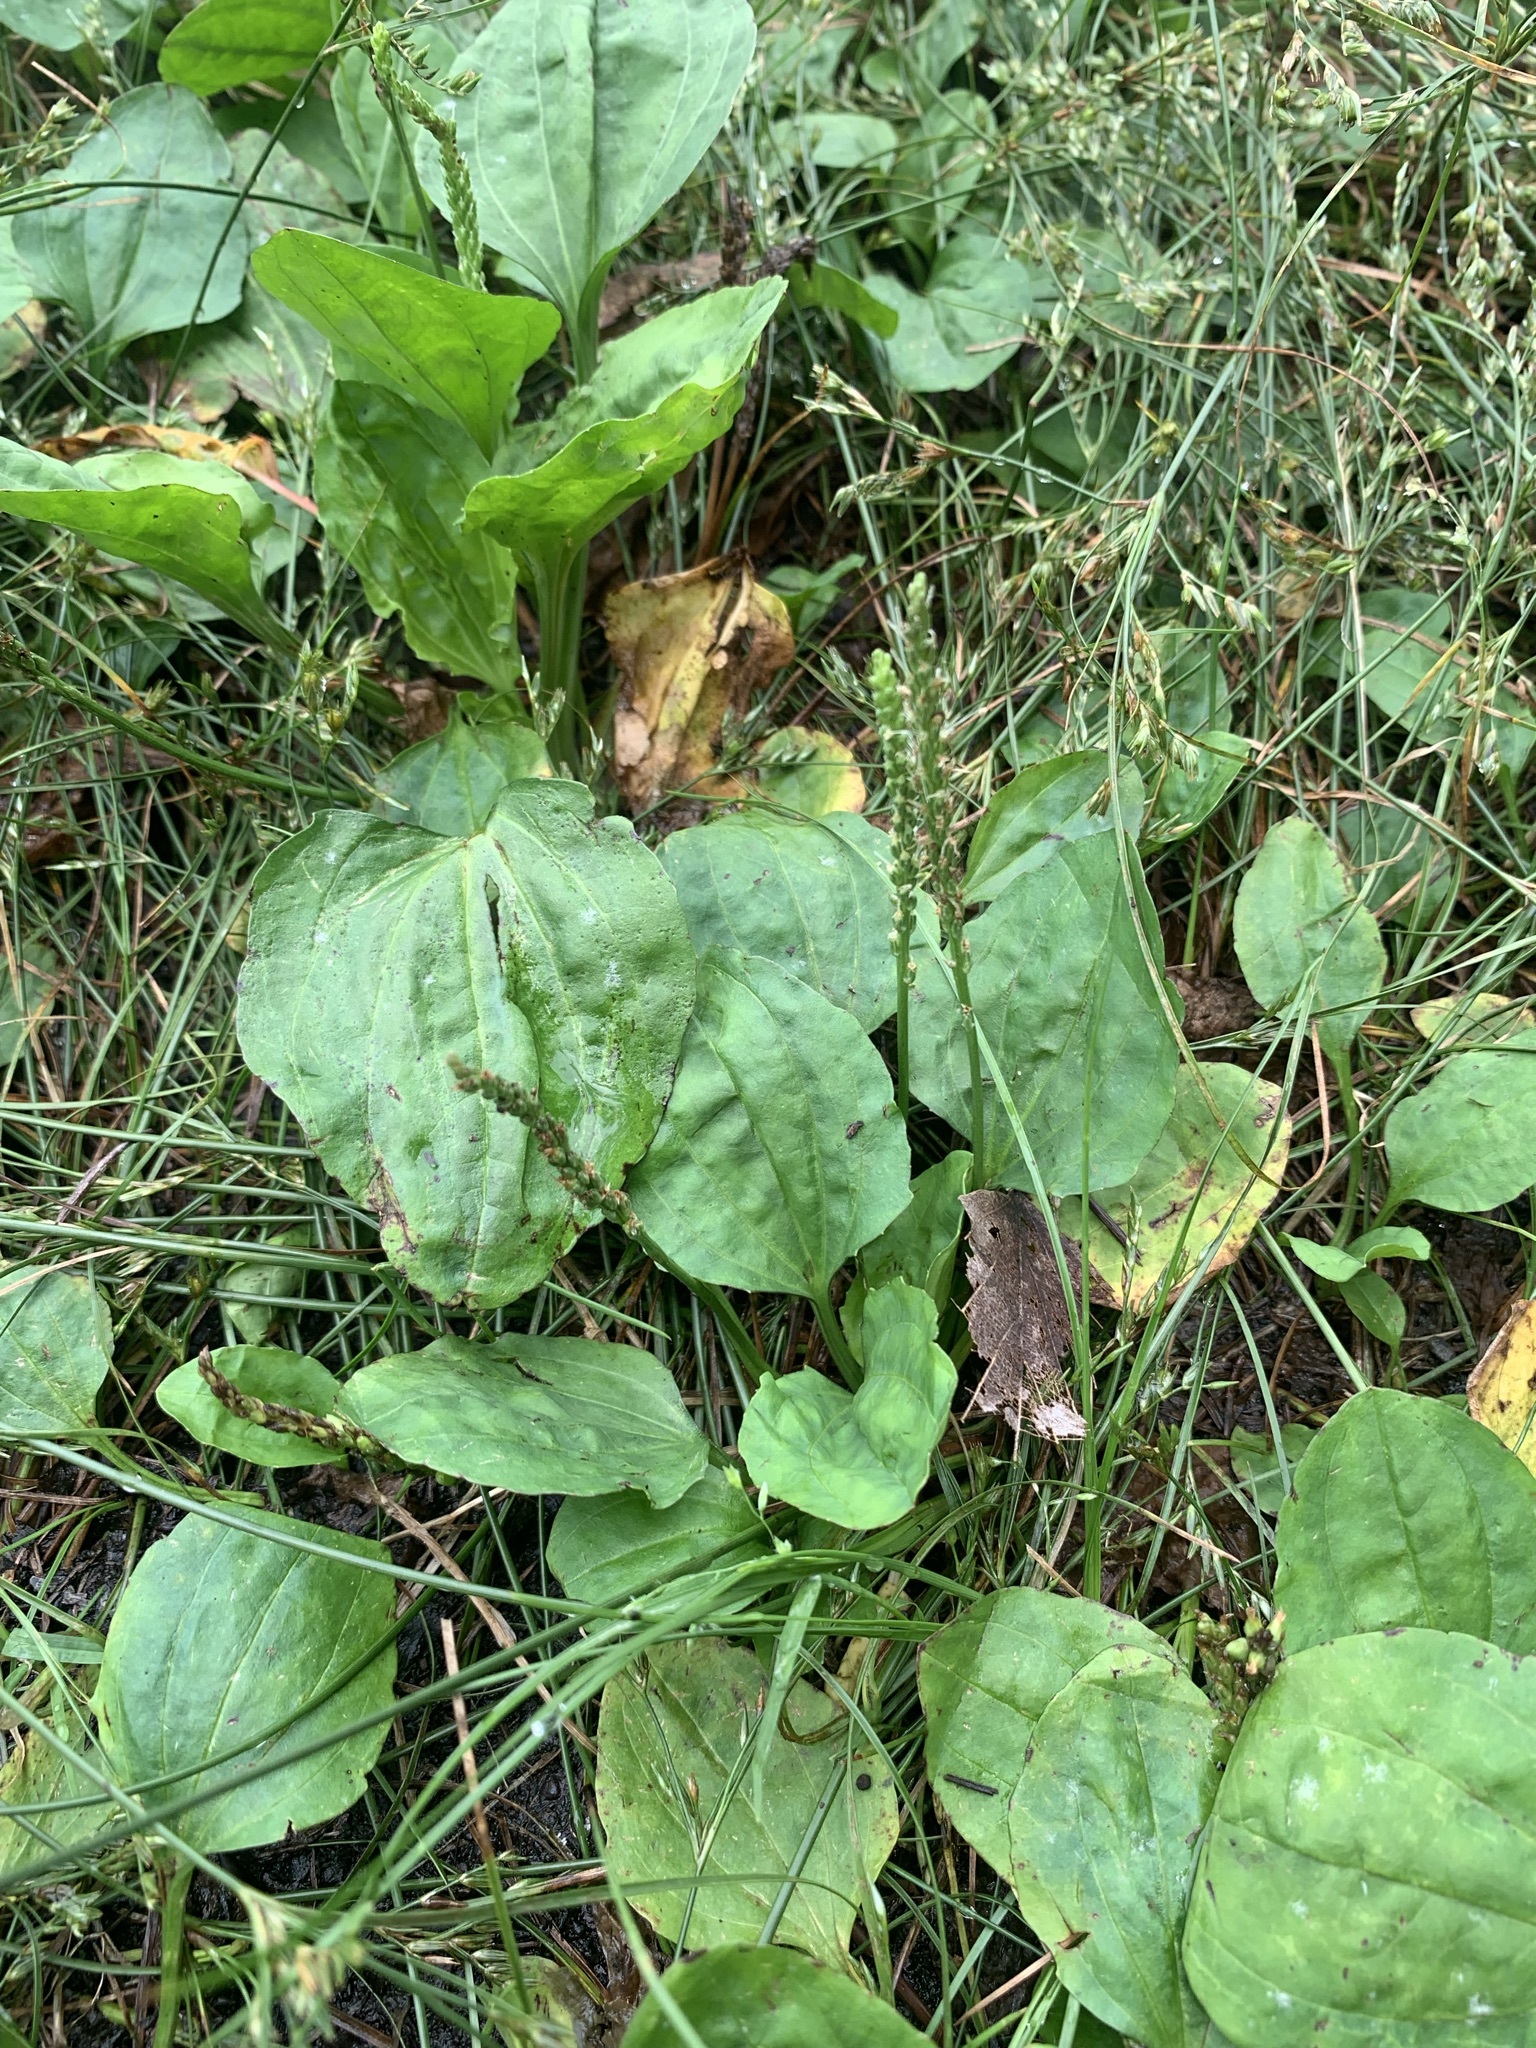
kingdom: Plantae
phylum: Tracheophyta
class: Magnoliopsida
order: Lamiales
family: Plantaginaceae
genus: Plantago
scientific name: Plantago asiatica
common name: Psyllium
